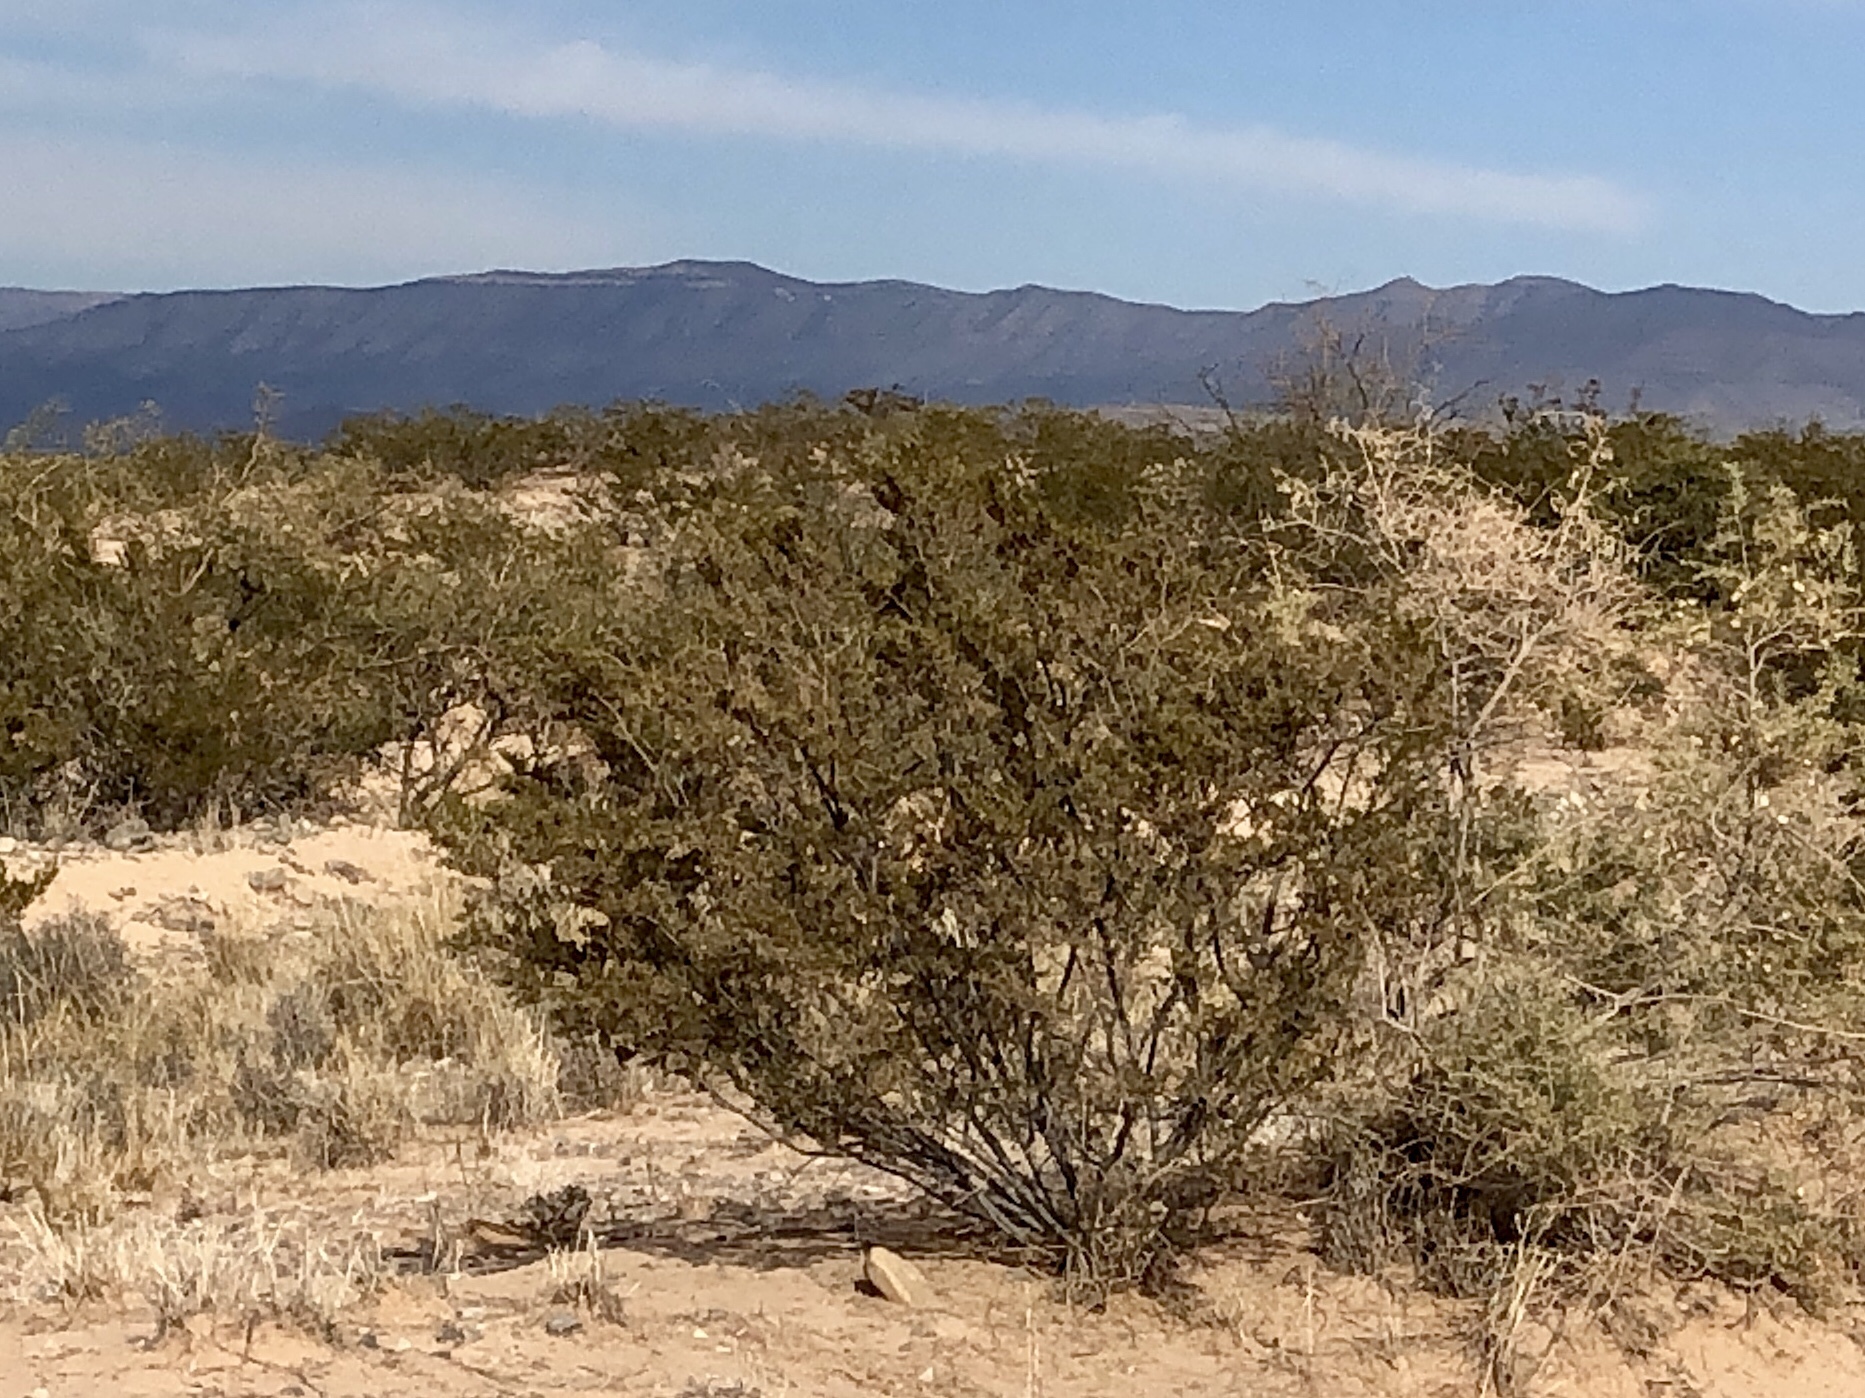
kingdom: Plantae
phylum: Tracheophyta
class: Magnoliopsida
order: Zygophyllales
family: Zygophyllaceae
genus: Larrea
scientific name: Larrea tridentata
